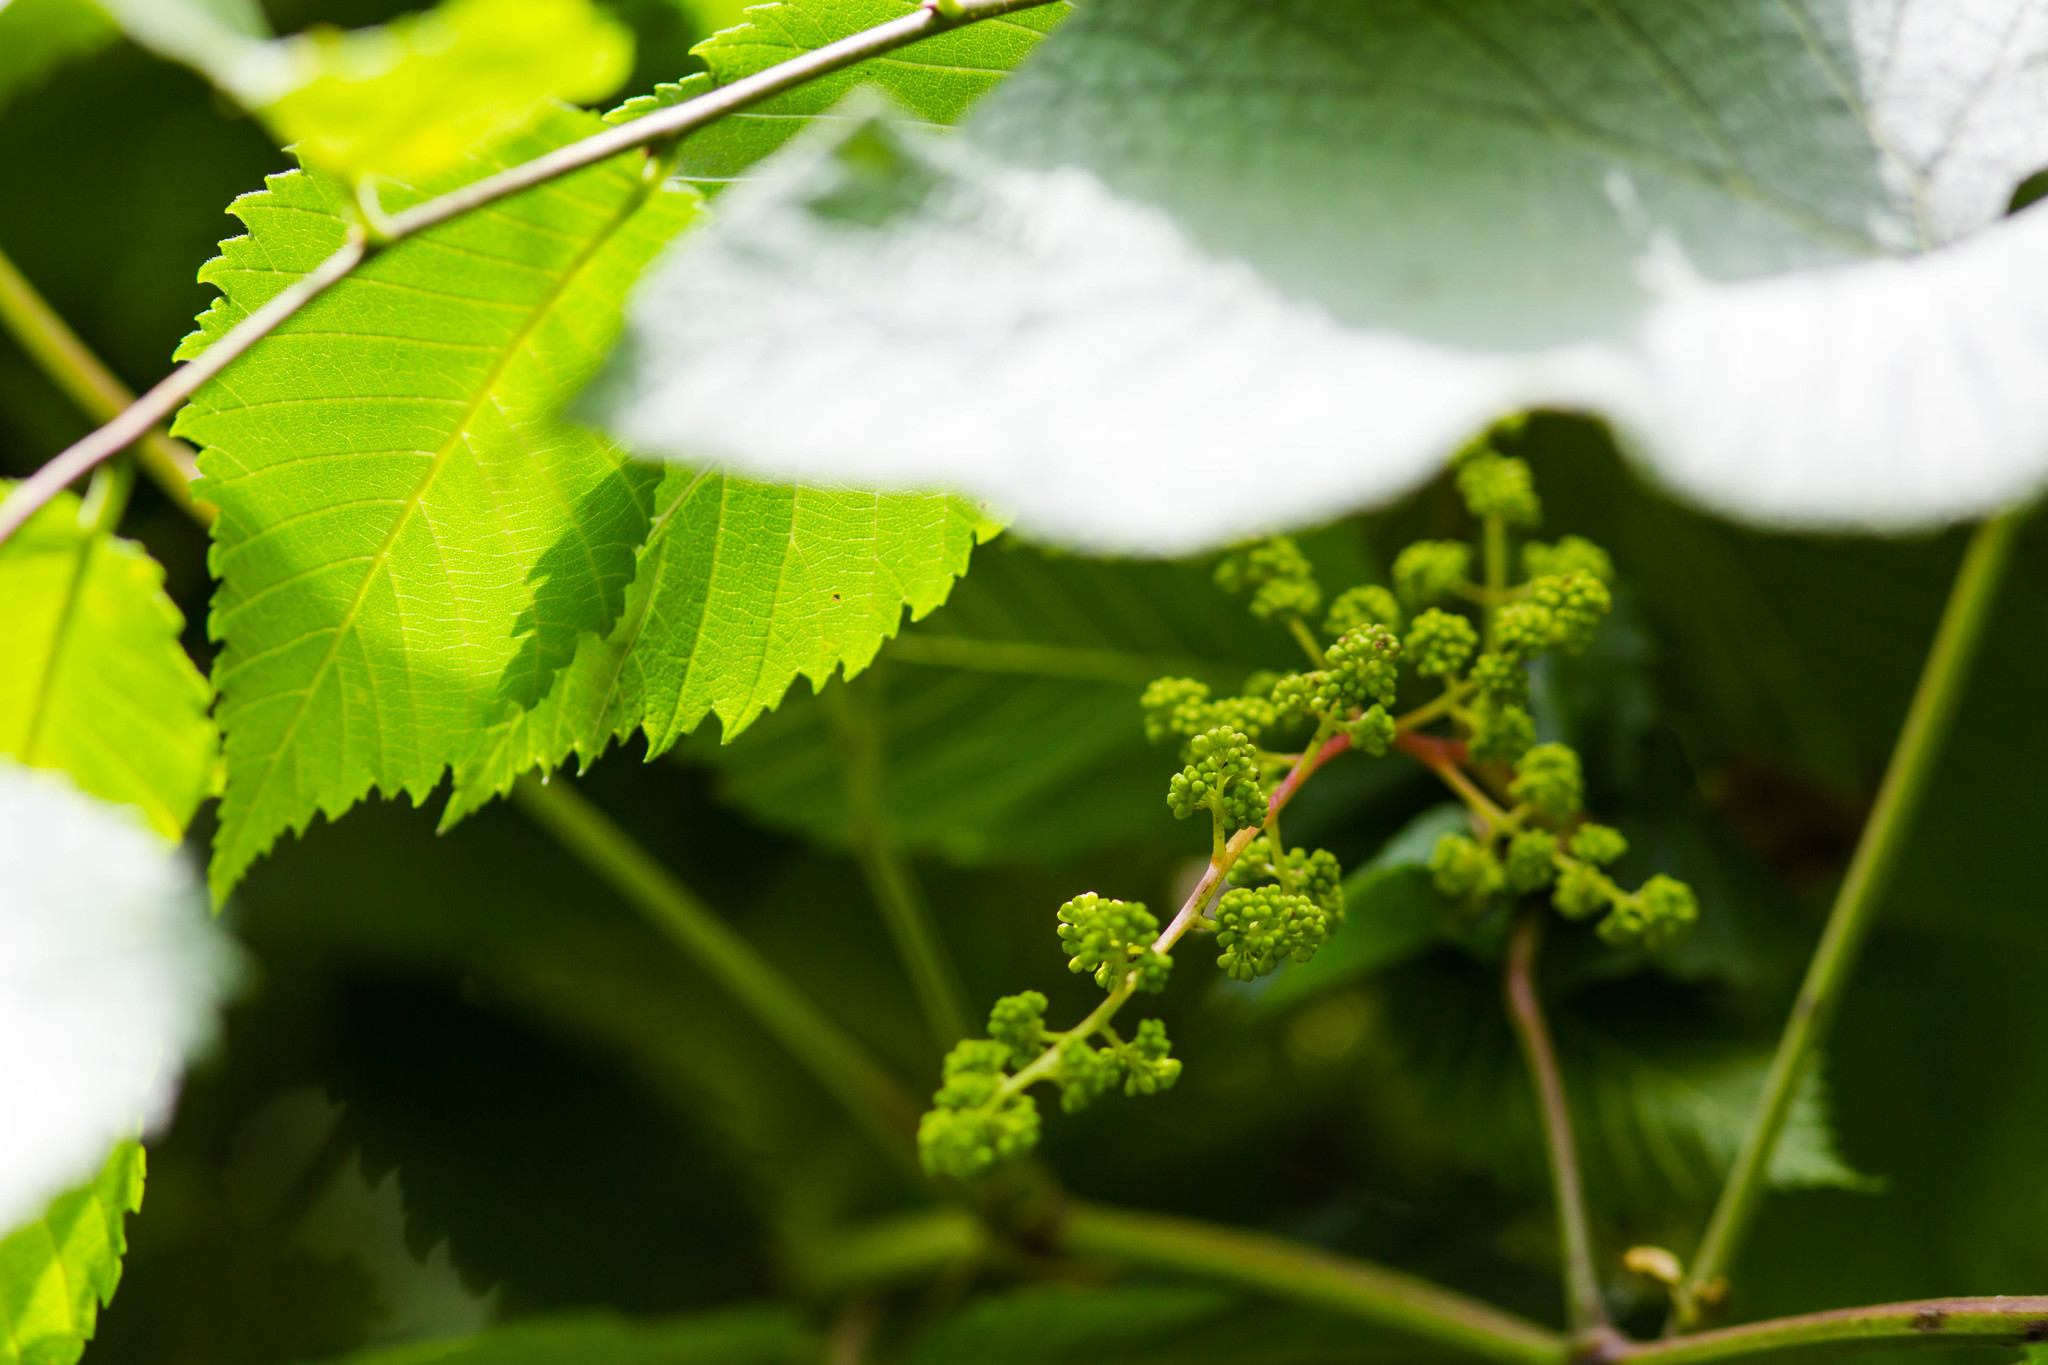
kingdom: Plantae
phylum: Tracheophyta
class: Magnoliopsida
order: Vitales
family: Vitaceae
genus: Vitis
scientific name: Vitis rotundifolia
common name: Muscadine grape
